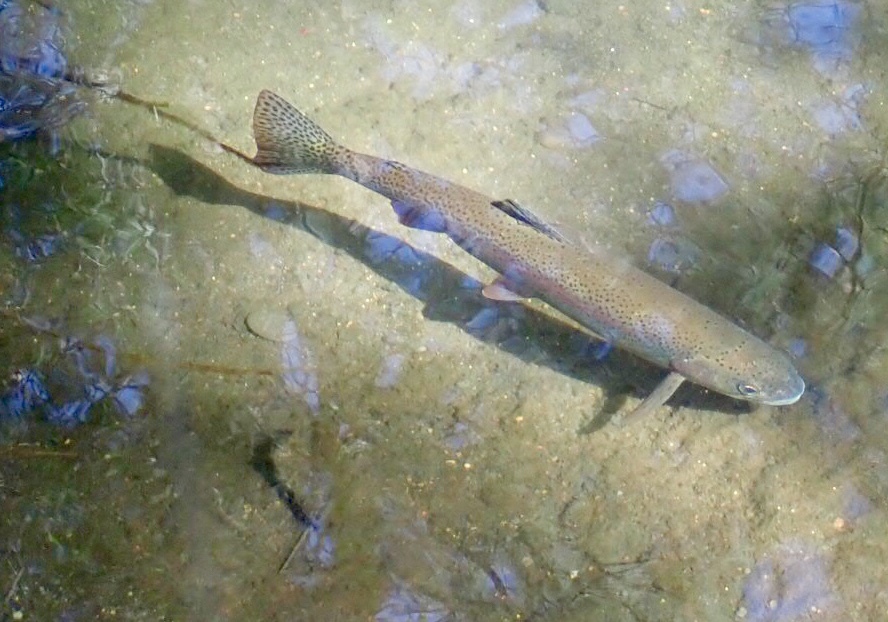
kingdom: Animalia
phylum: Chordata
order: Salmoniformes
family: Salmonidae
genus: Oncorhynchus
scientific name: Oncorhynchus mykiss
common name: Rainbow trout
